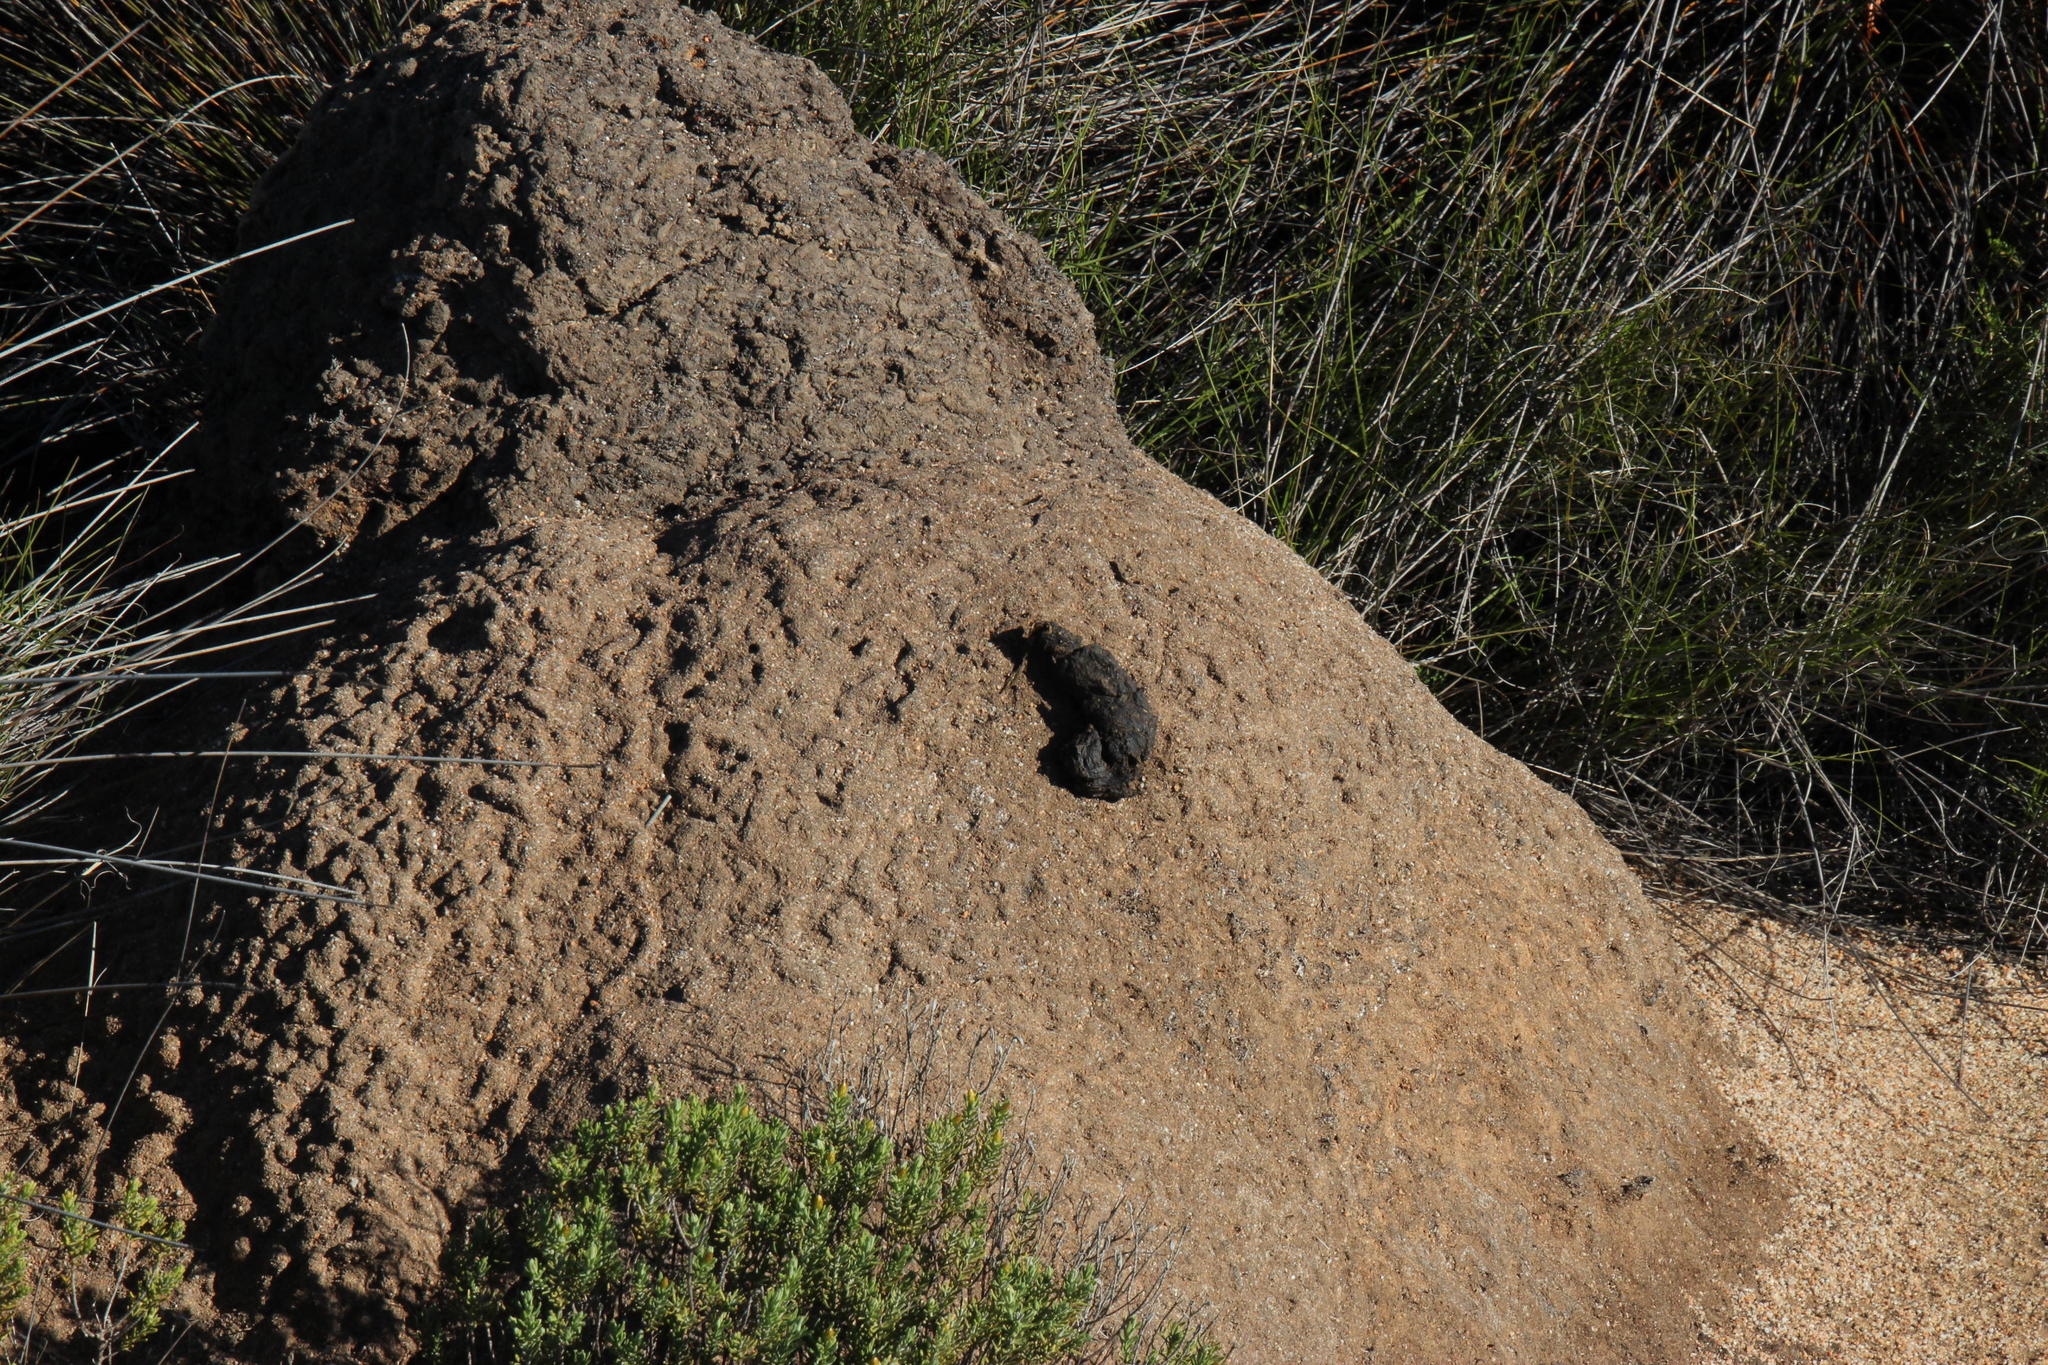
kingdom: Animalia
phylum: Chordata
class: Mammalia
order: Primates
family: Cercopithecidae
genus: Papio
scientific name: Papio ursinus
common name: Chacma baboon
